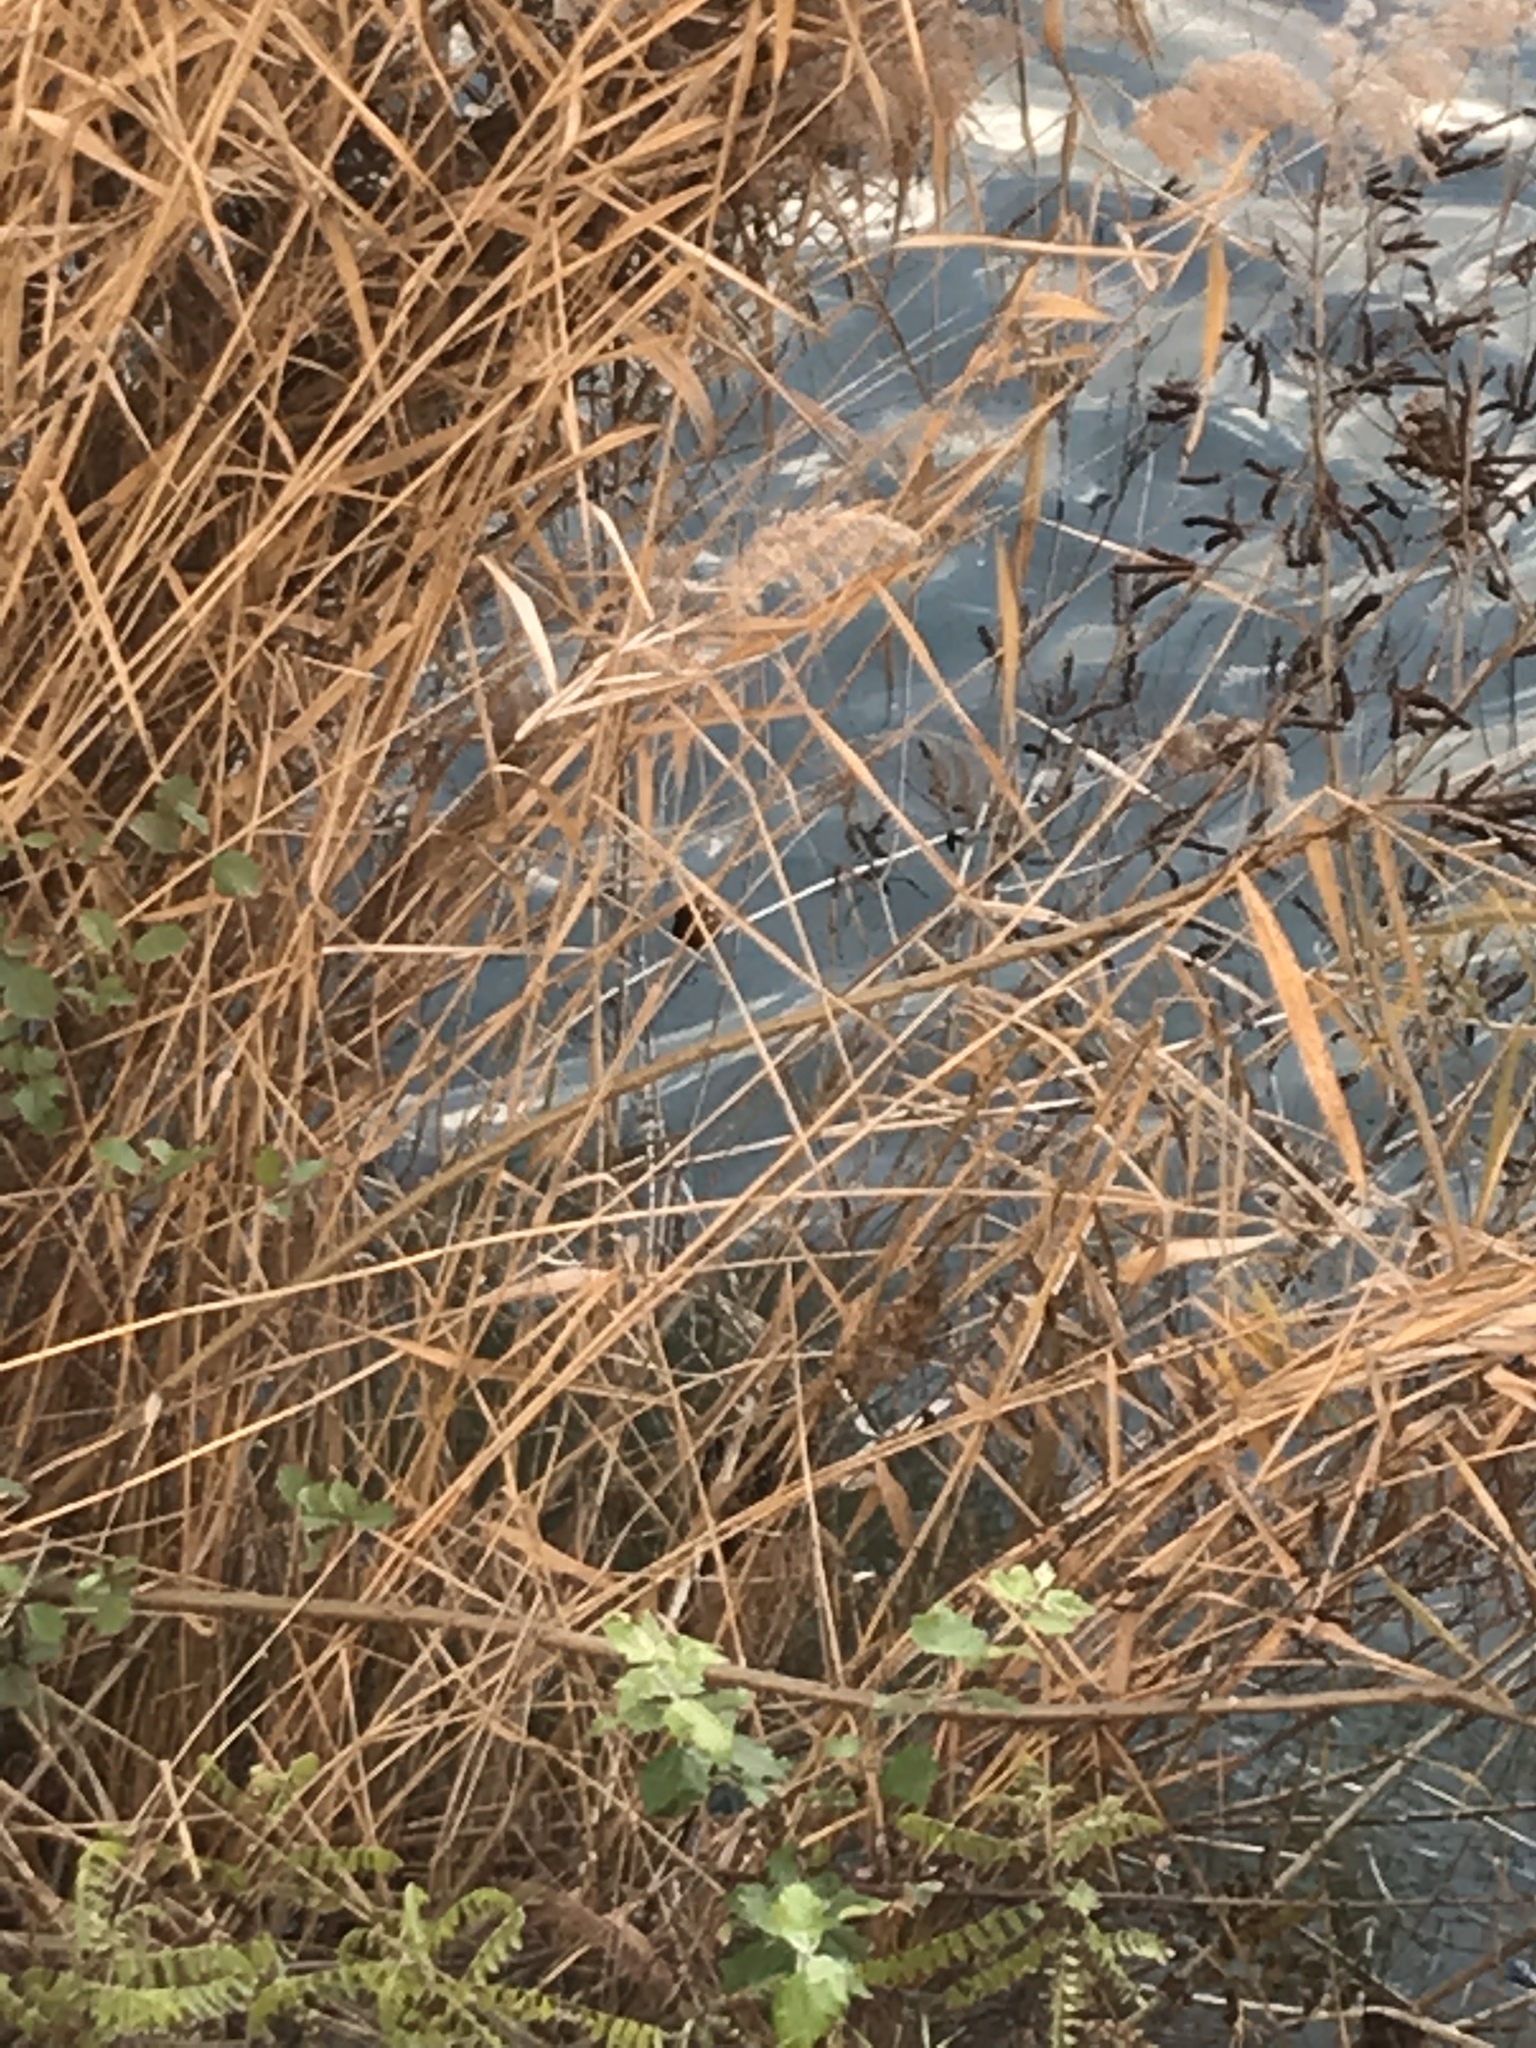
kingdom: Animalia
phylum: Chordata
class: Aves
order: Coraciiformes
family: Alcedinidae
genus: Alcedo
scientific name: Alcedo atthis
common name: Common kingfisher
